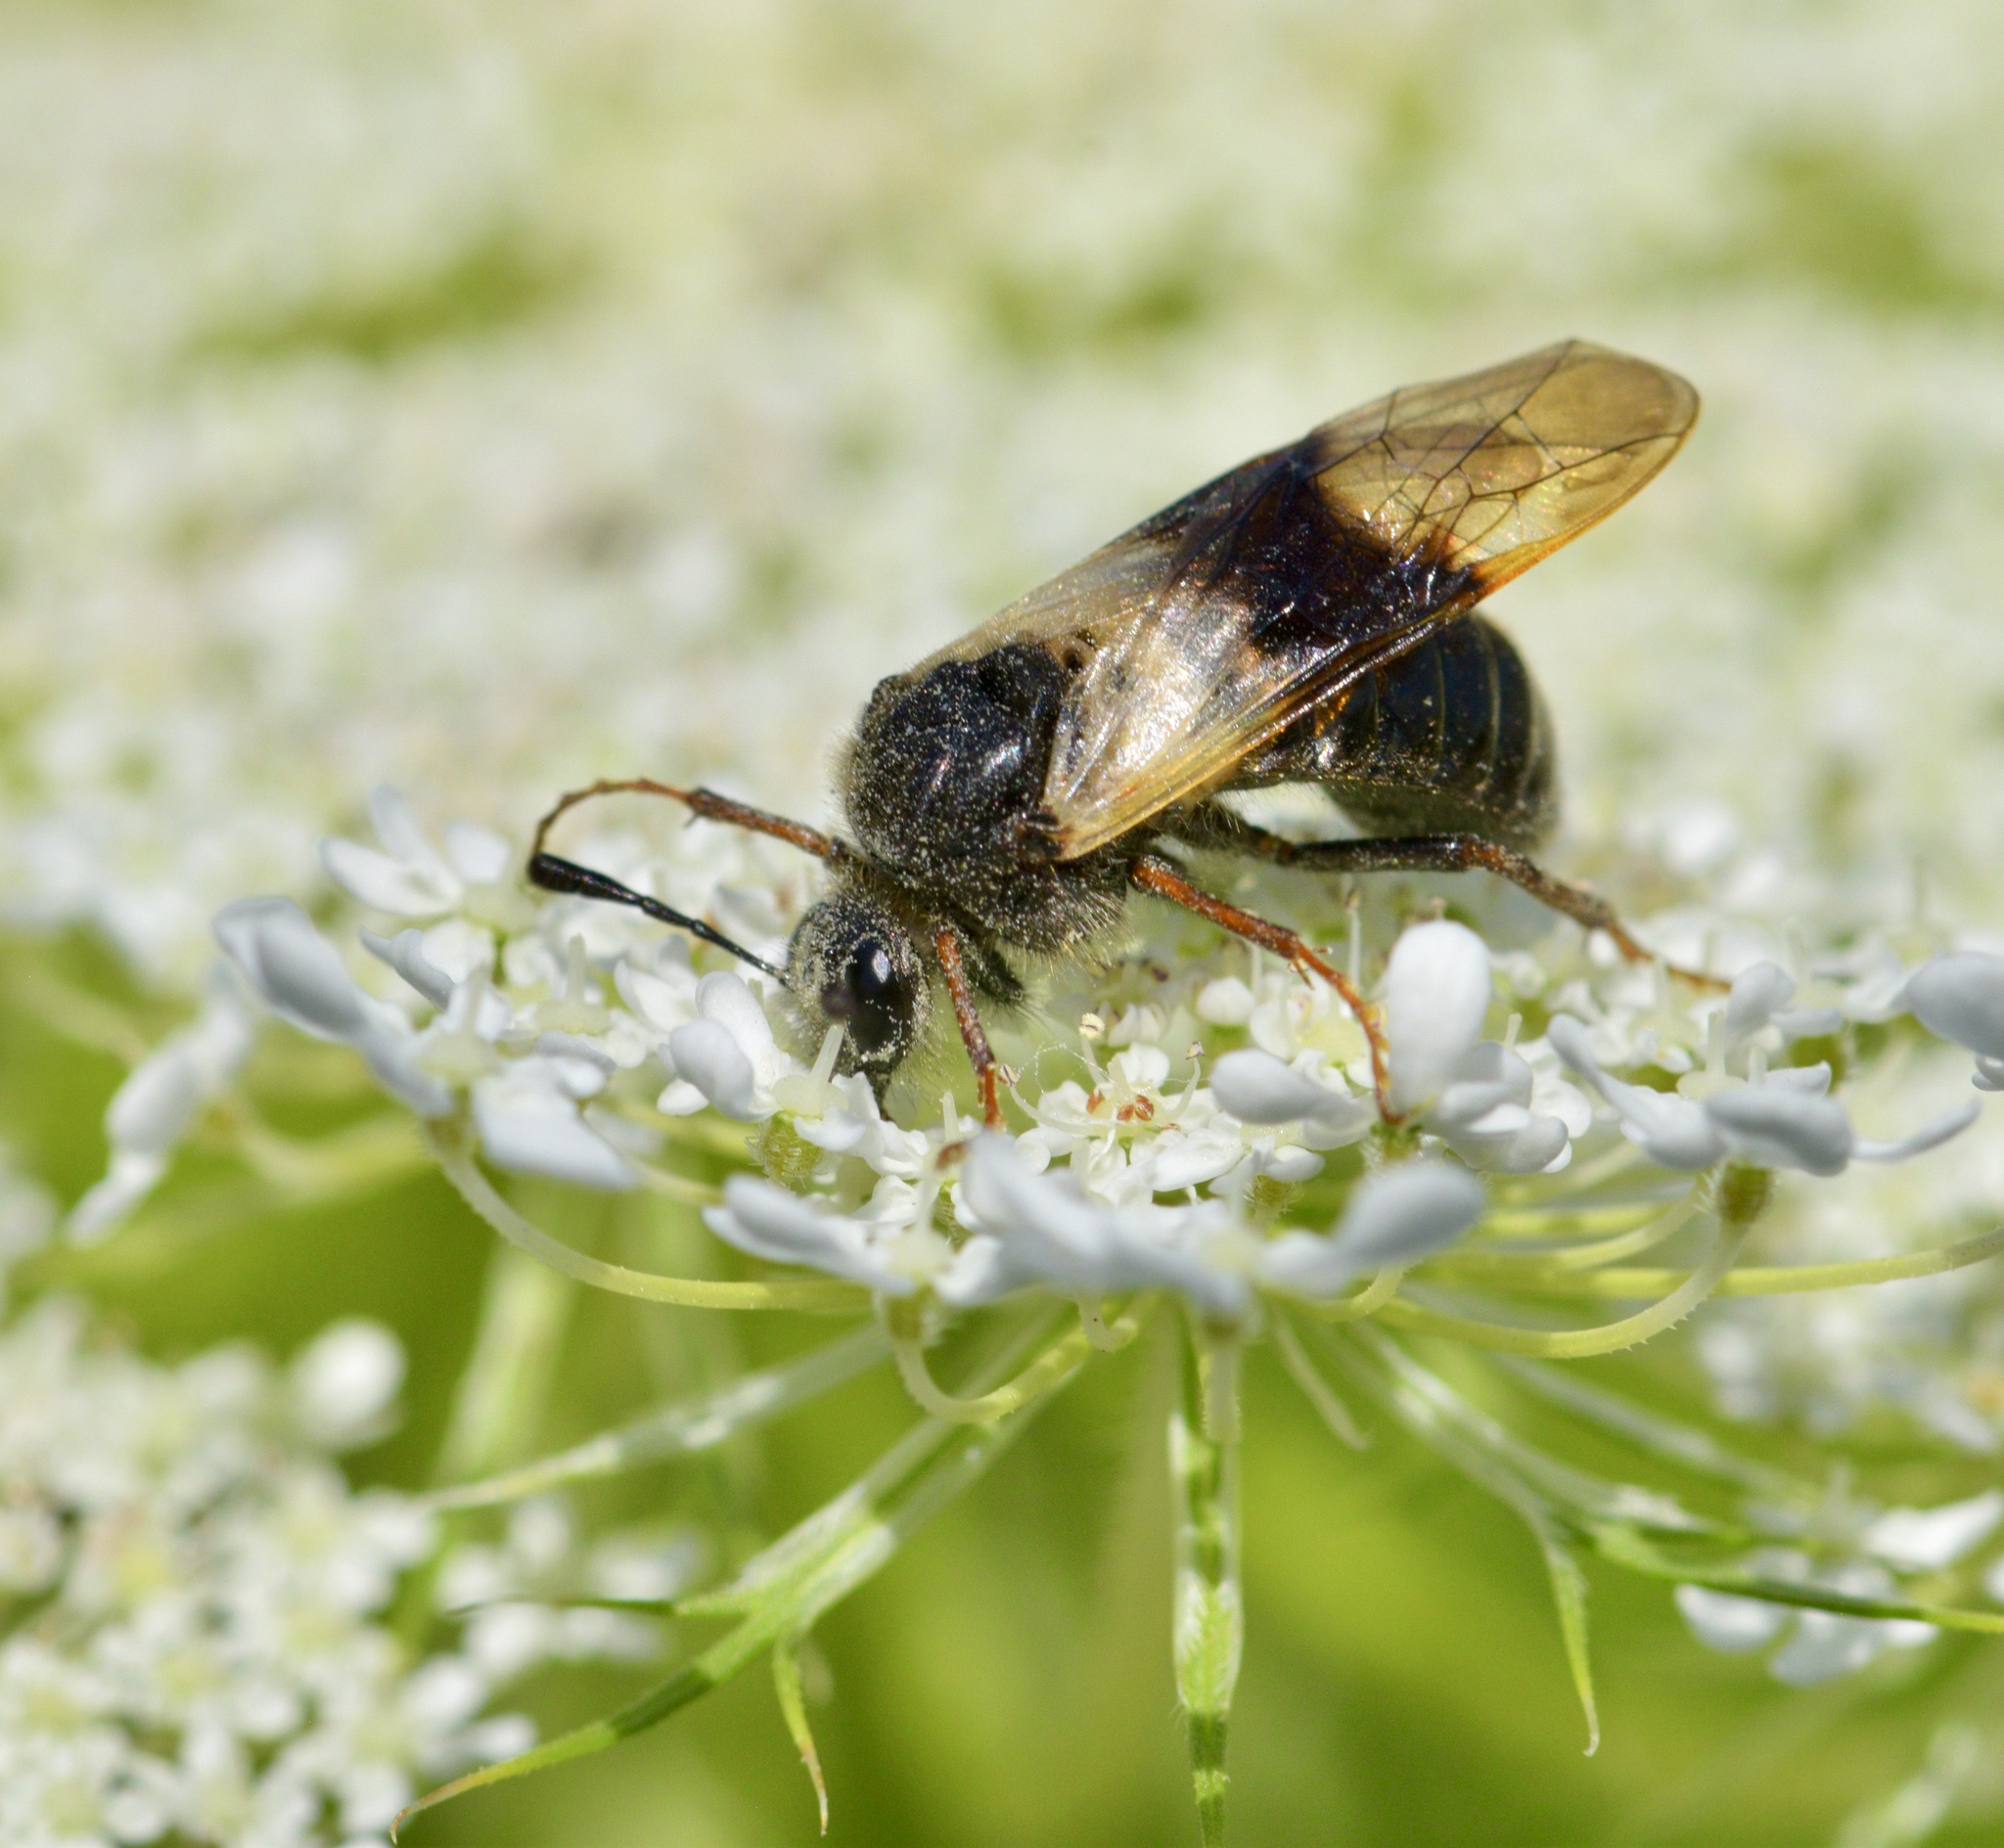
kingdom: Animalia
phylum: Arthropoda
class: Insecta
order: Hymenoptera
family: Cimbicidae
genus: Abia
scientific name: Abia fasciata
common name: Banded honeysuckle sawfly
